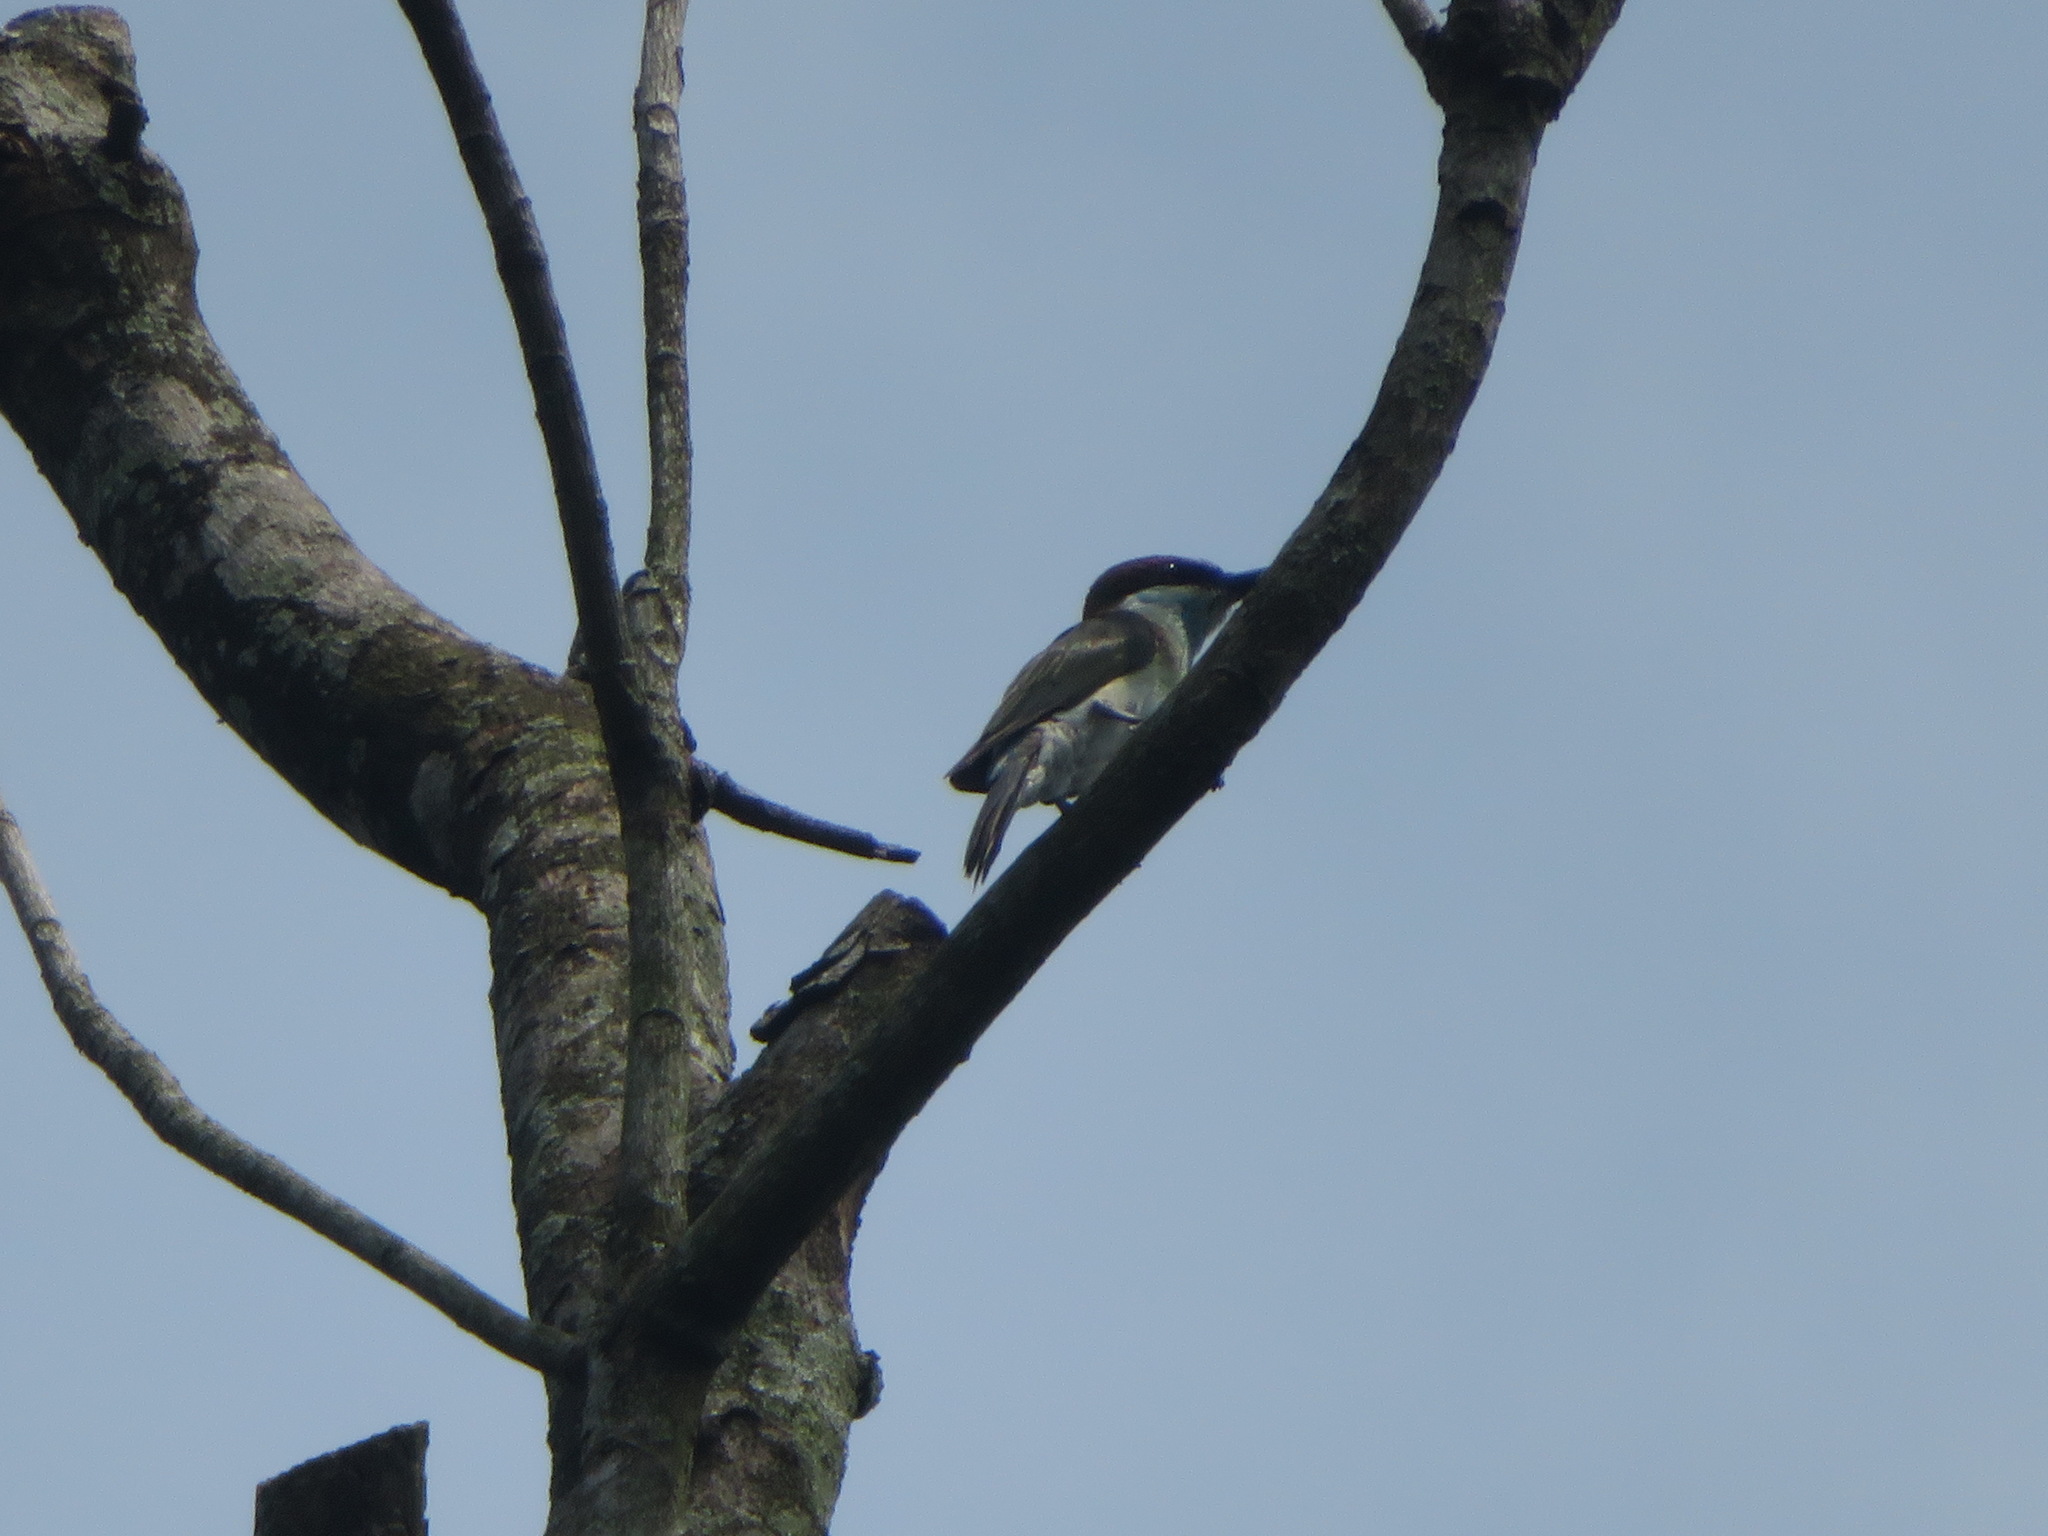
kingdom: Animalia
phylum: Chordata
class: Aves
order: Coraciiformes
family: Meropidae
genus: Merops
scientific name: Merops viridis
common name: Blue-throated bee-eater
